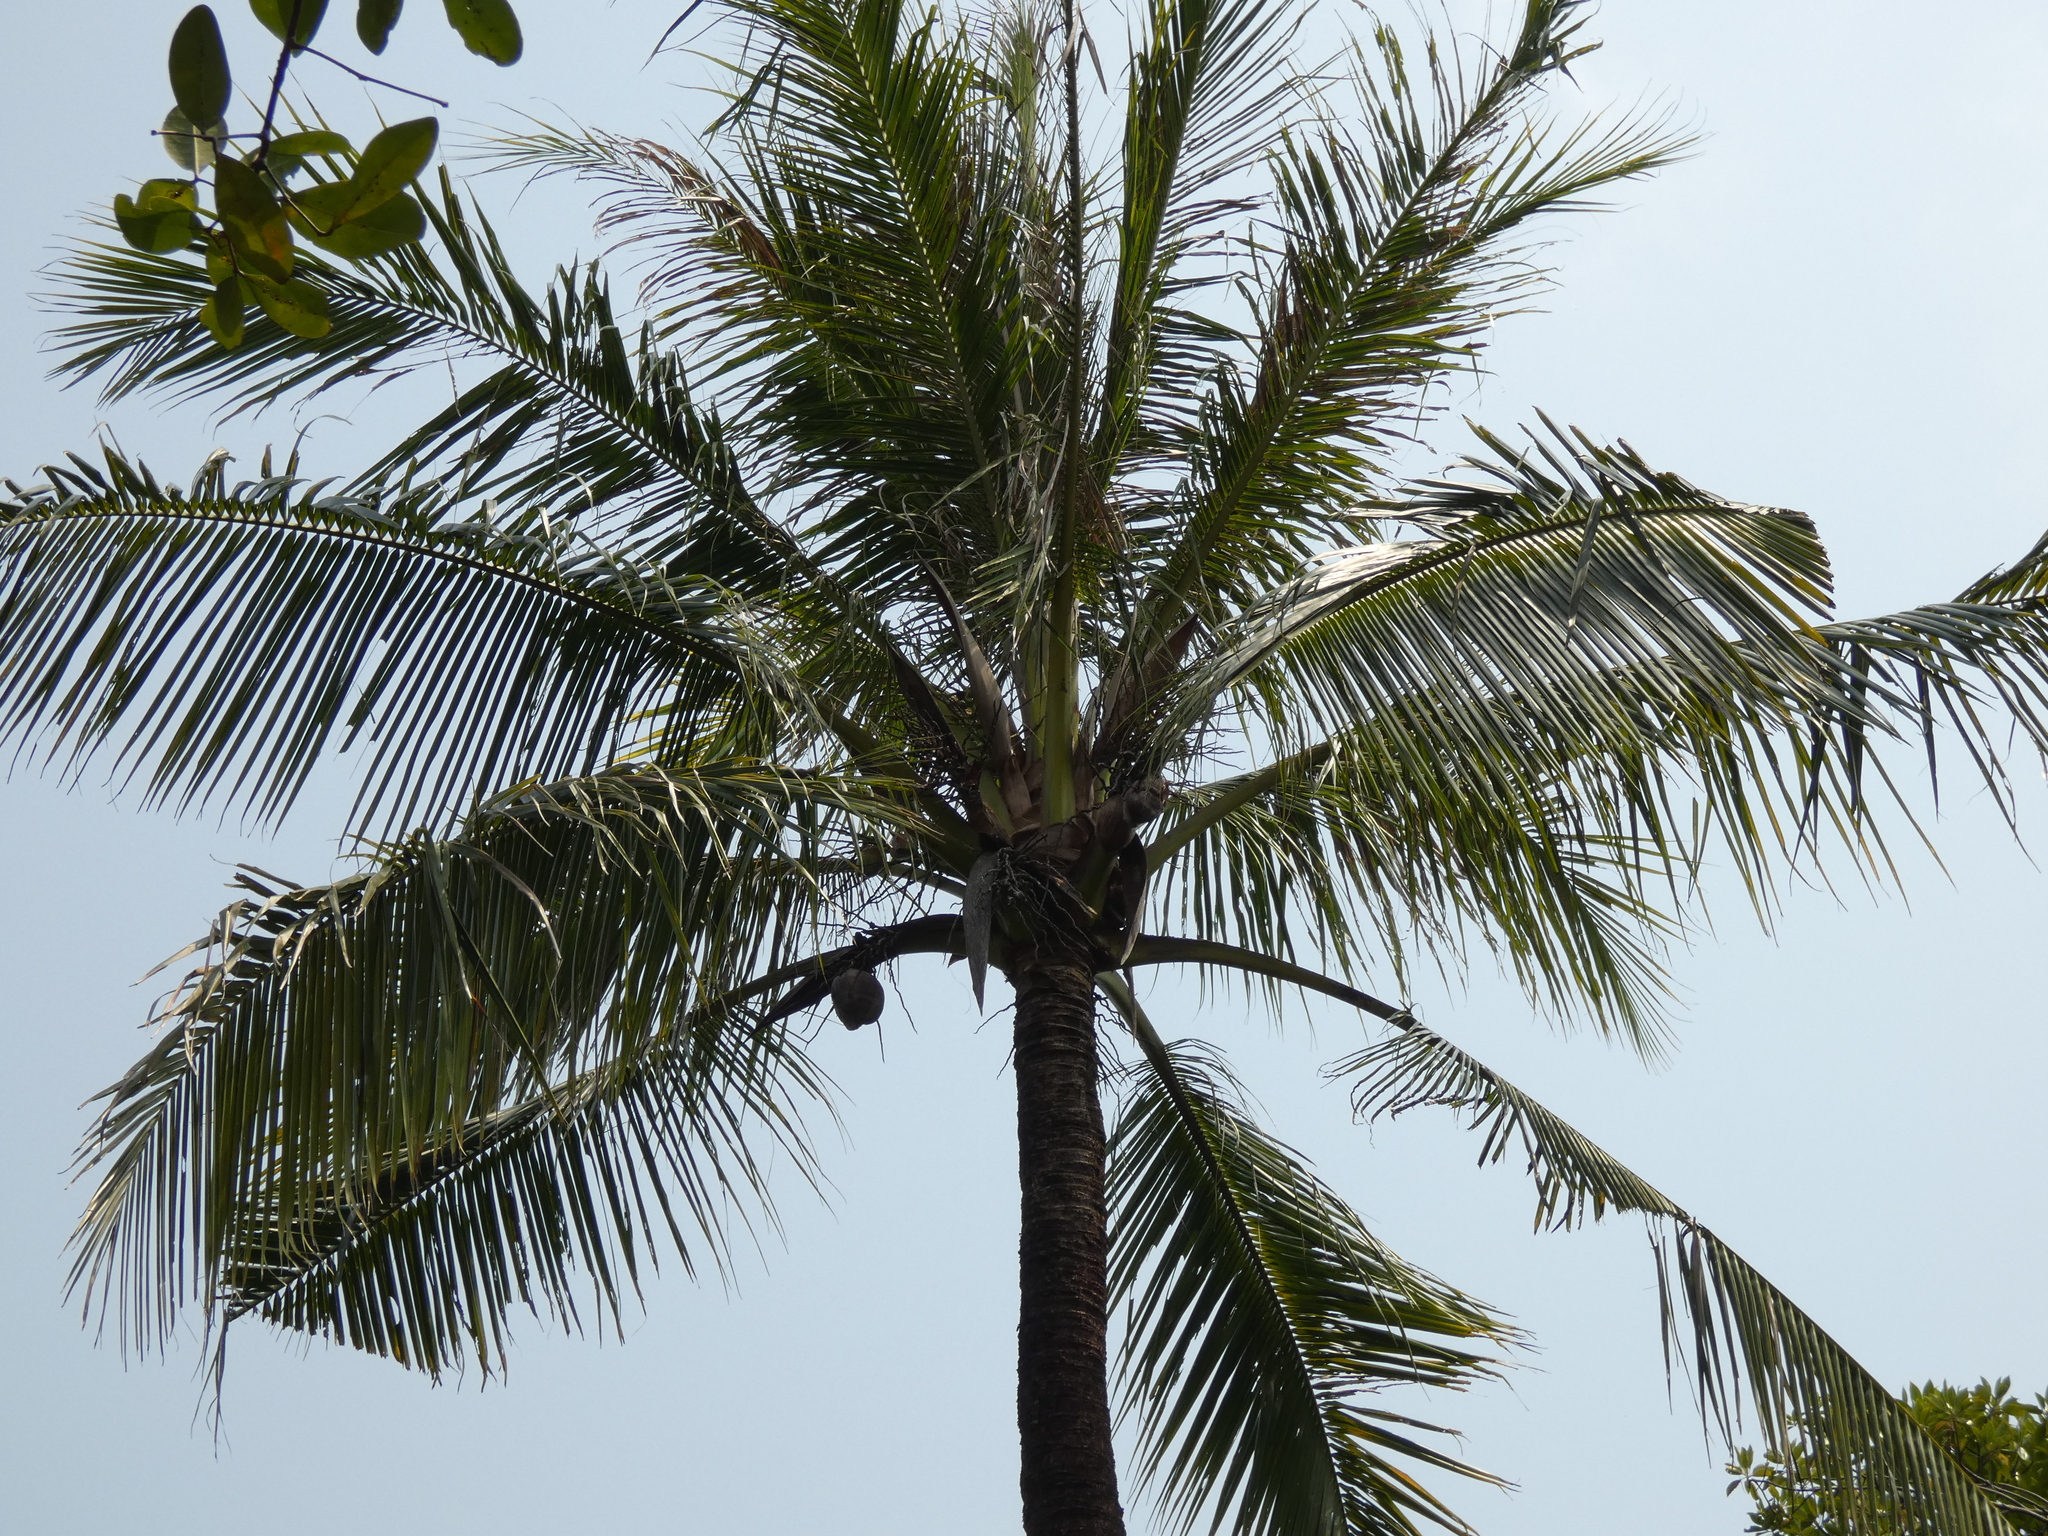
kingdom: Plantae
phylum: Tracheophyta
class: Liliopsida
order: Arecales
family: Arecaceae
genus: Cocos
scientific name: Cocos nucifera
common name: Coconut palm
